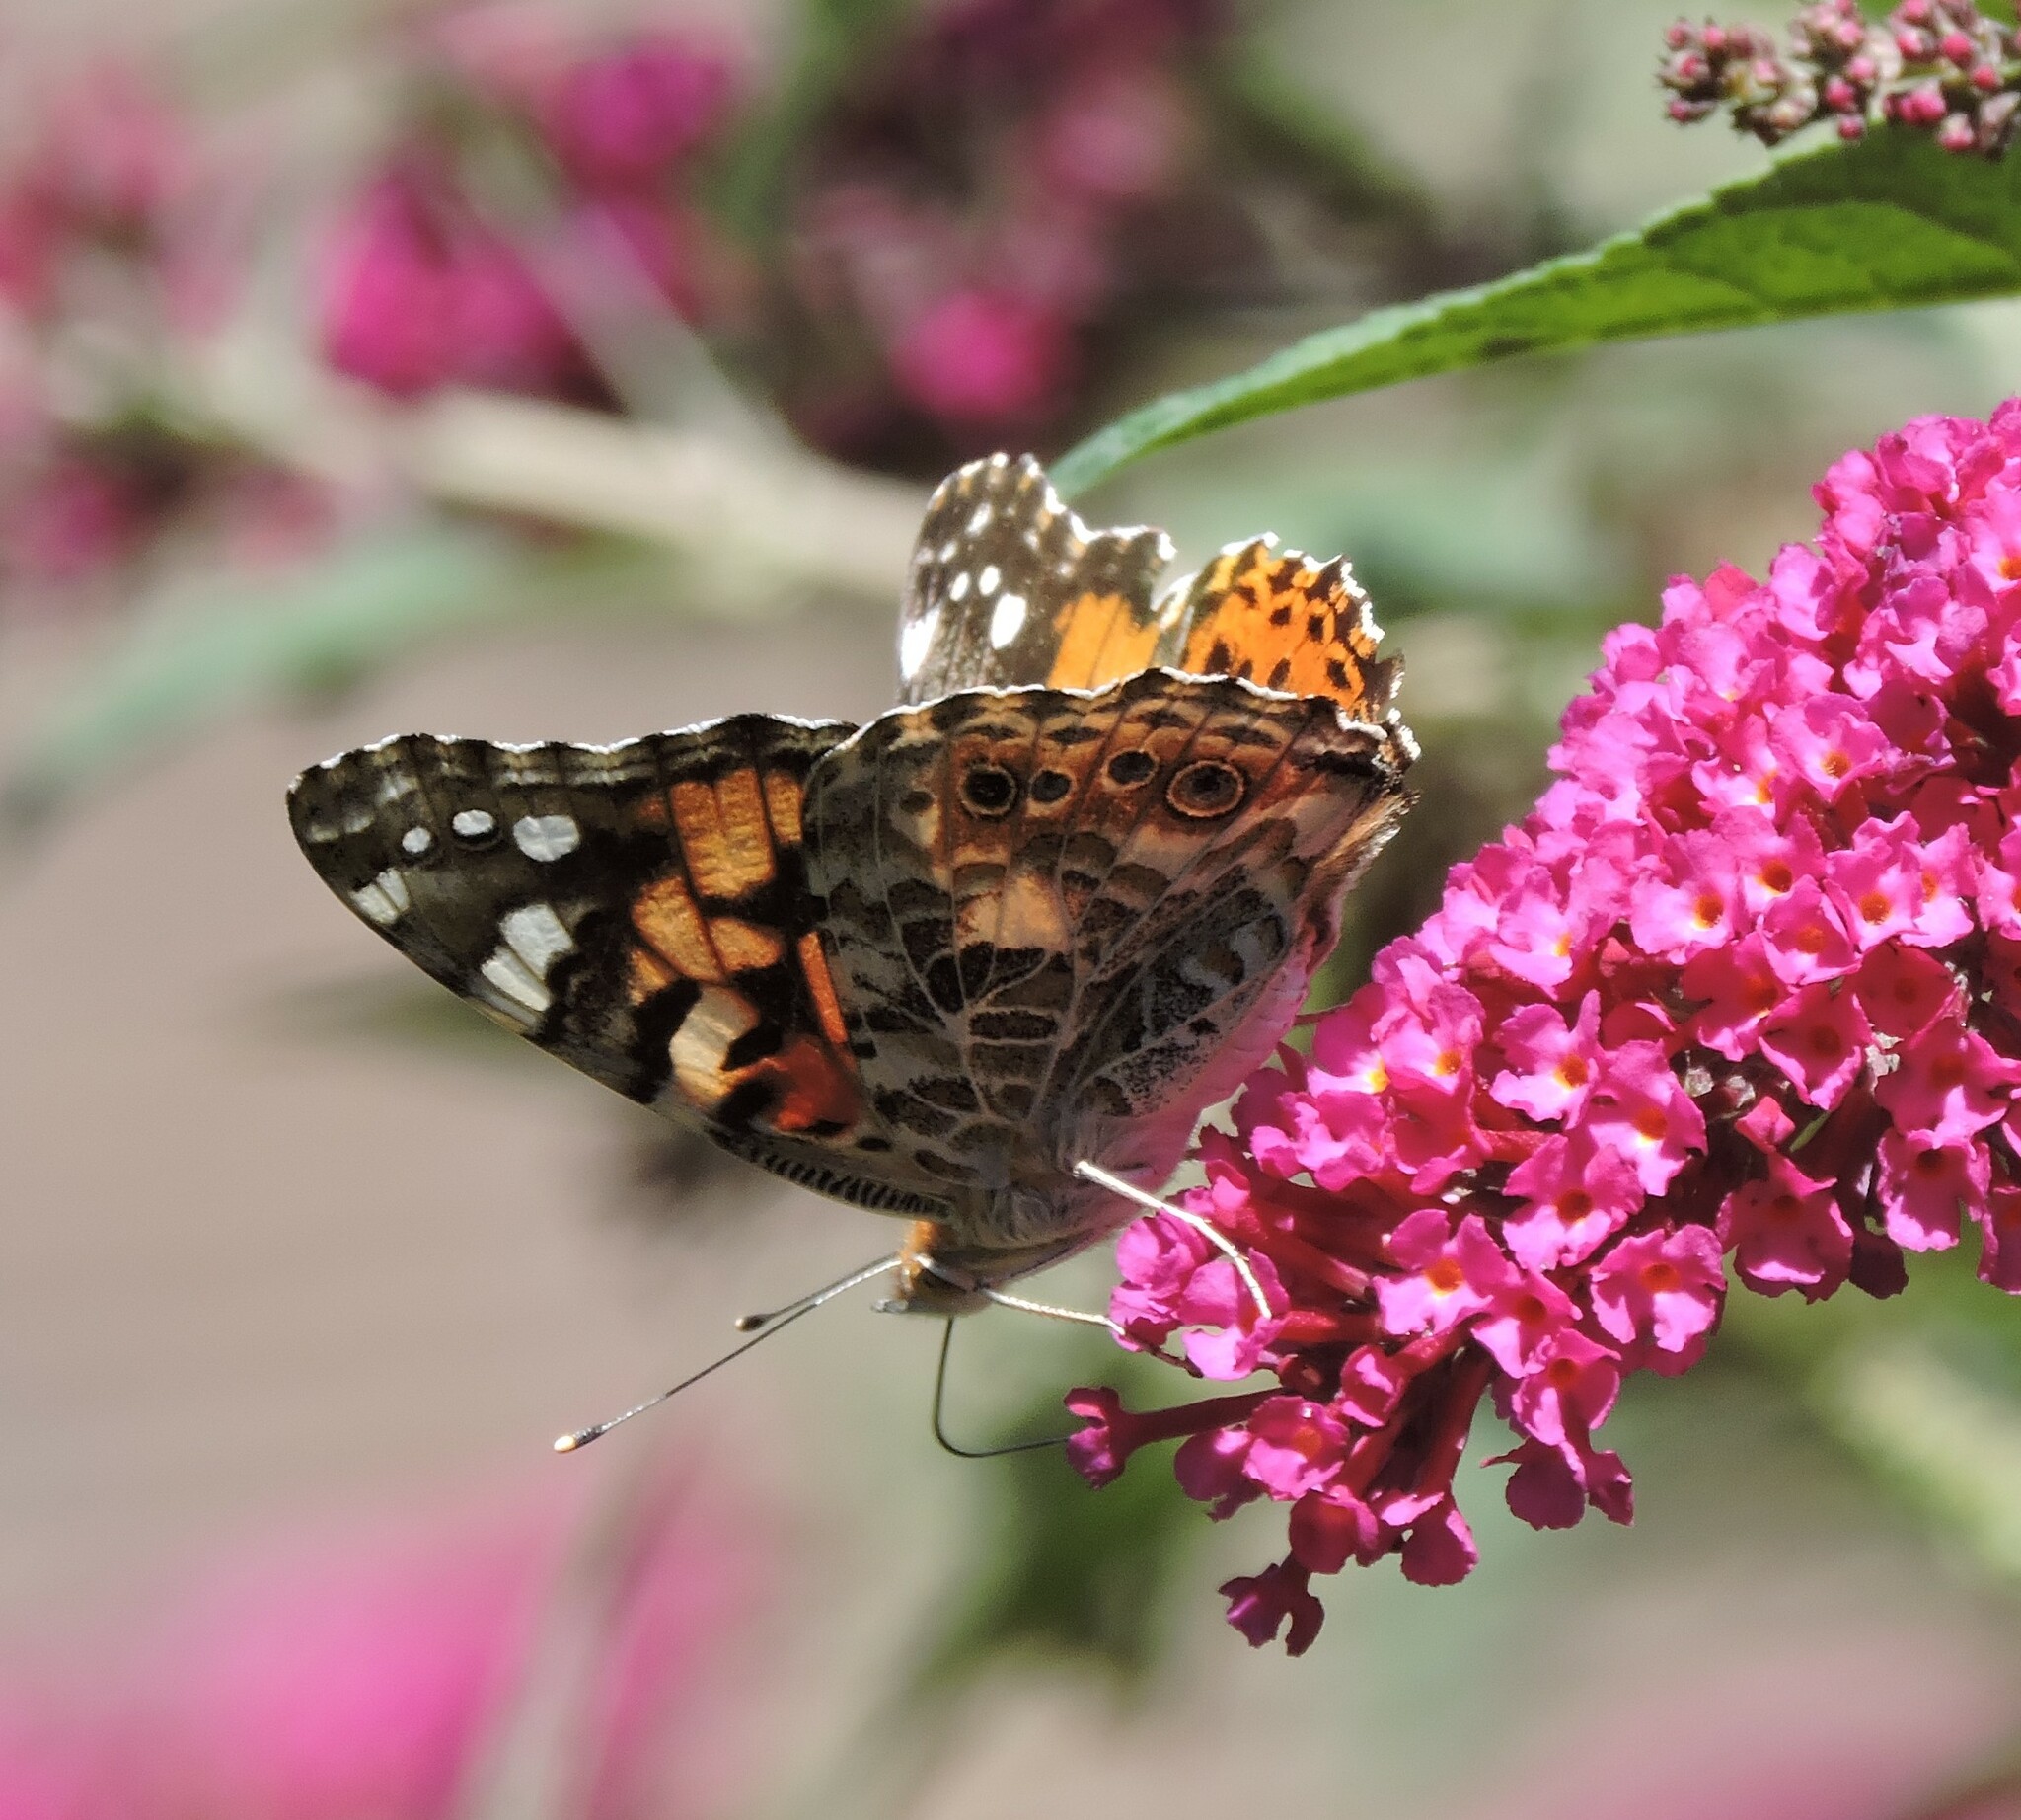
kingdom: Animalia
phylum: Arthropoda
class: Insecta
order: Lepidoptera
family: Nymphalidae
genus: Vanessa
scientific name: Vanessa cardui
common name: Painted lady
